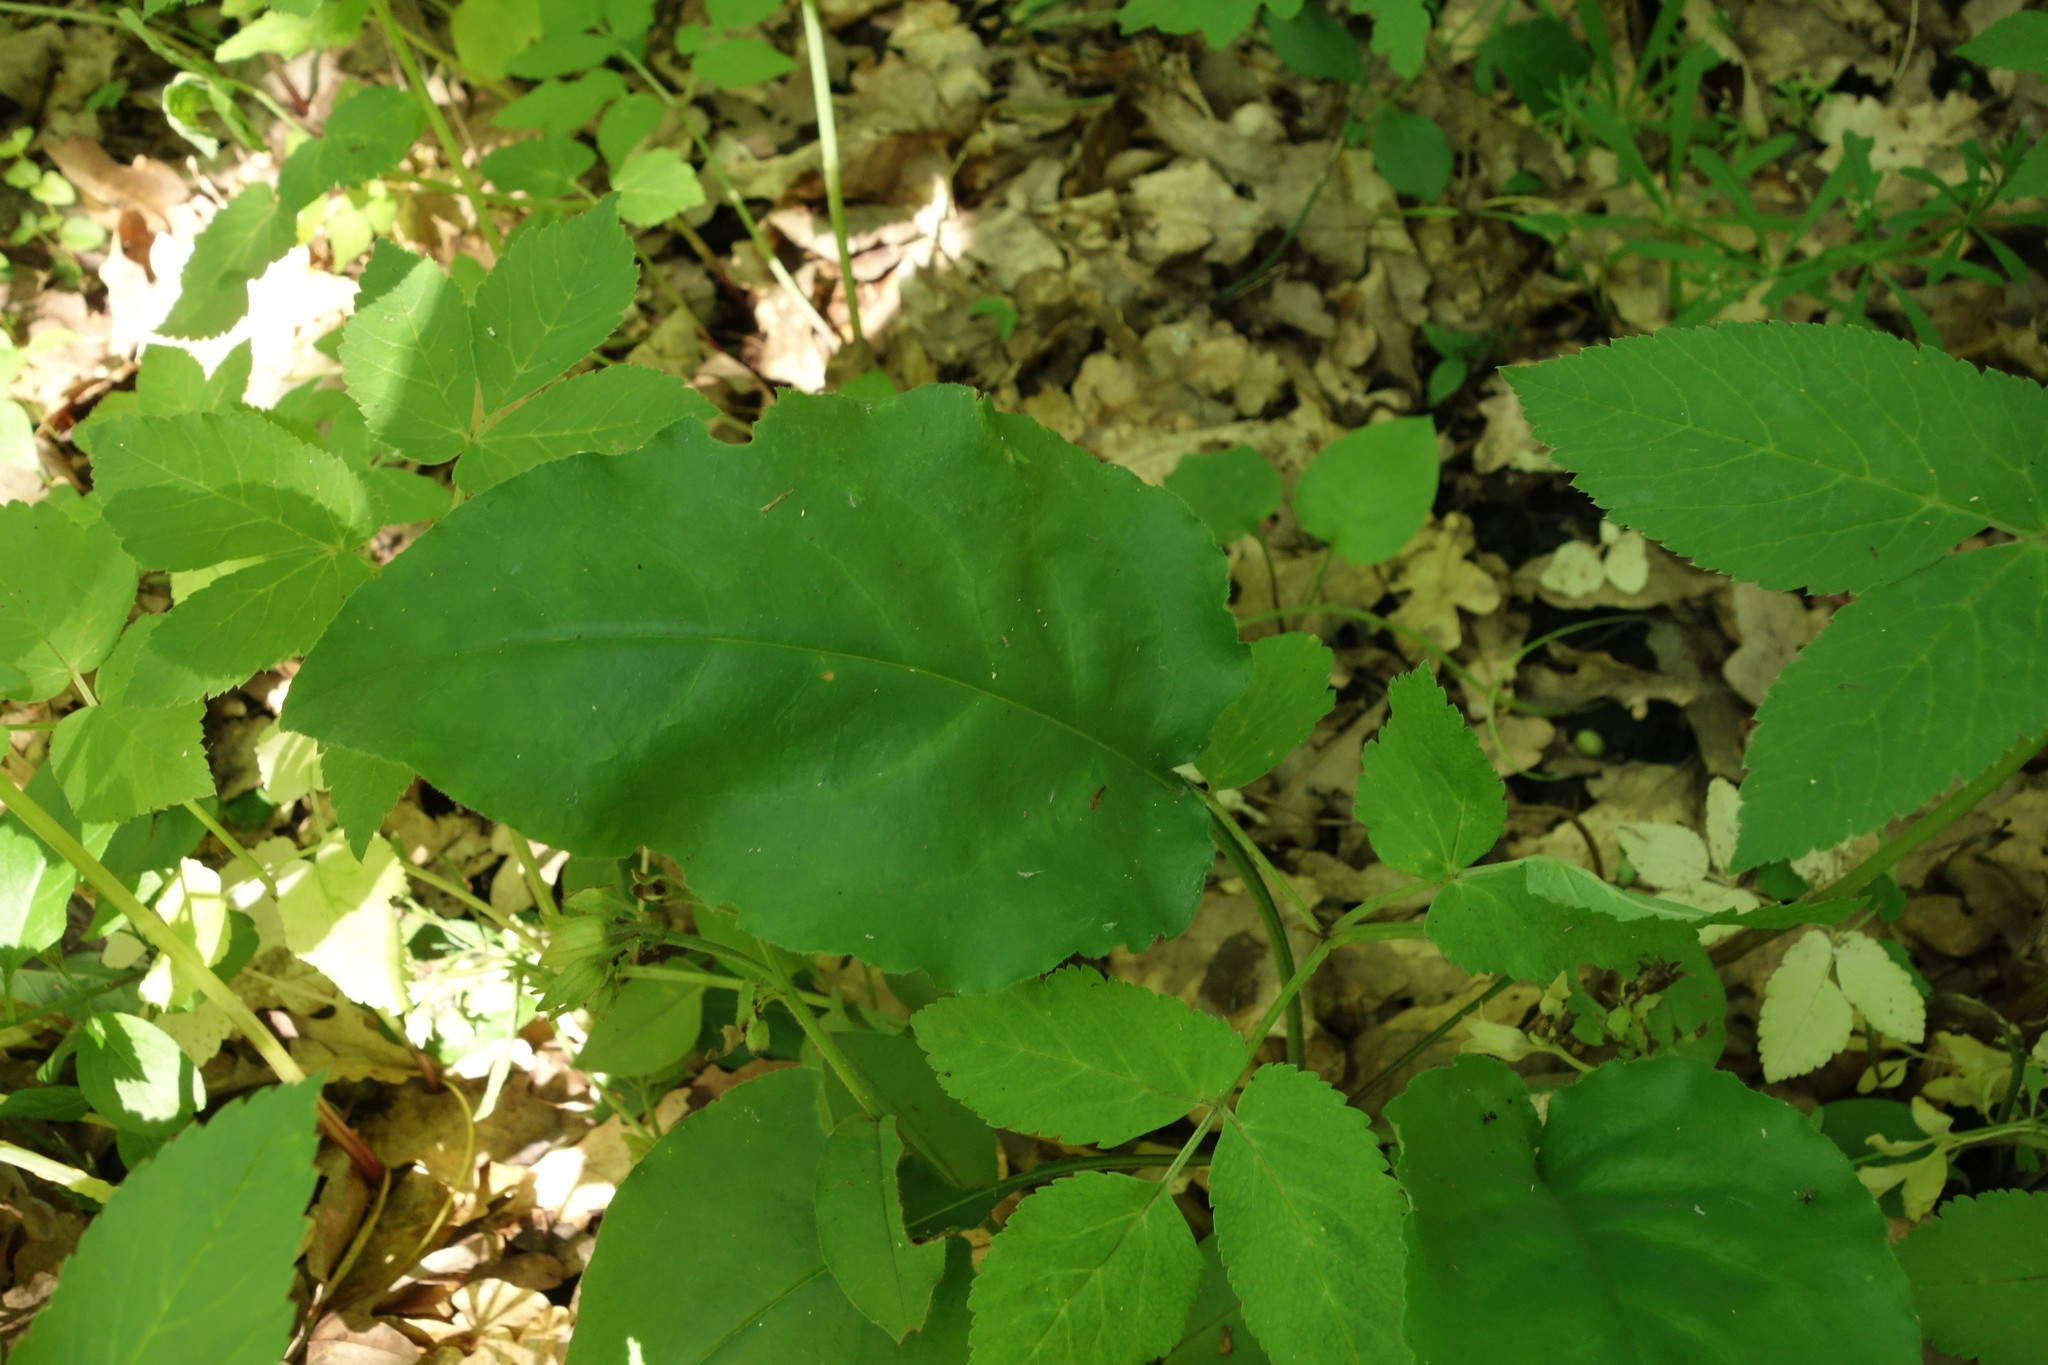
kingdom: Plantae
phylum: Tracheophyta
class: Magnoliopsida
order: Boraginales
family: Boraginaceae
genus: Pulmonaria
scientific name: Pulmonaria obscura
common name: Suffolk lungwort
